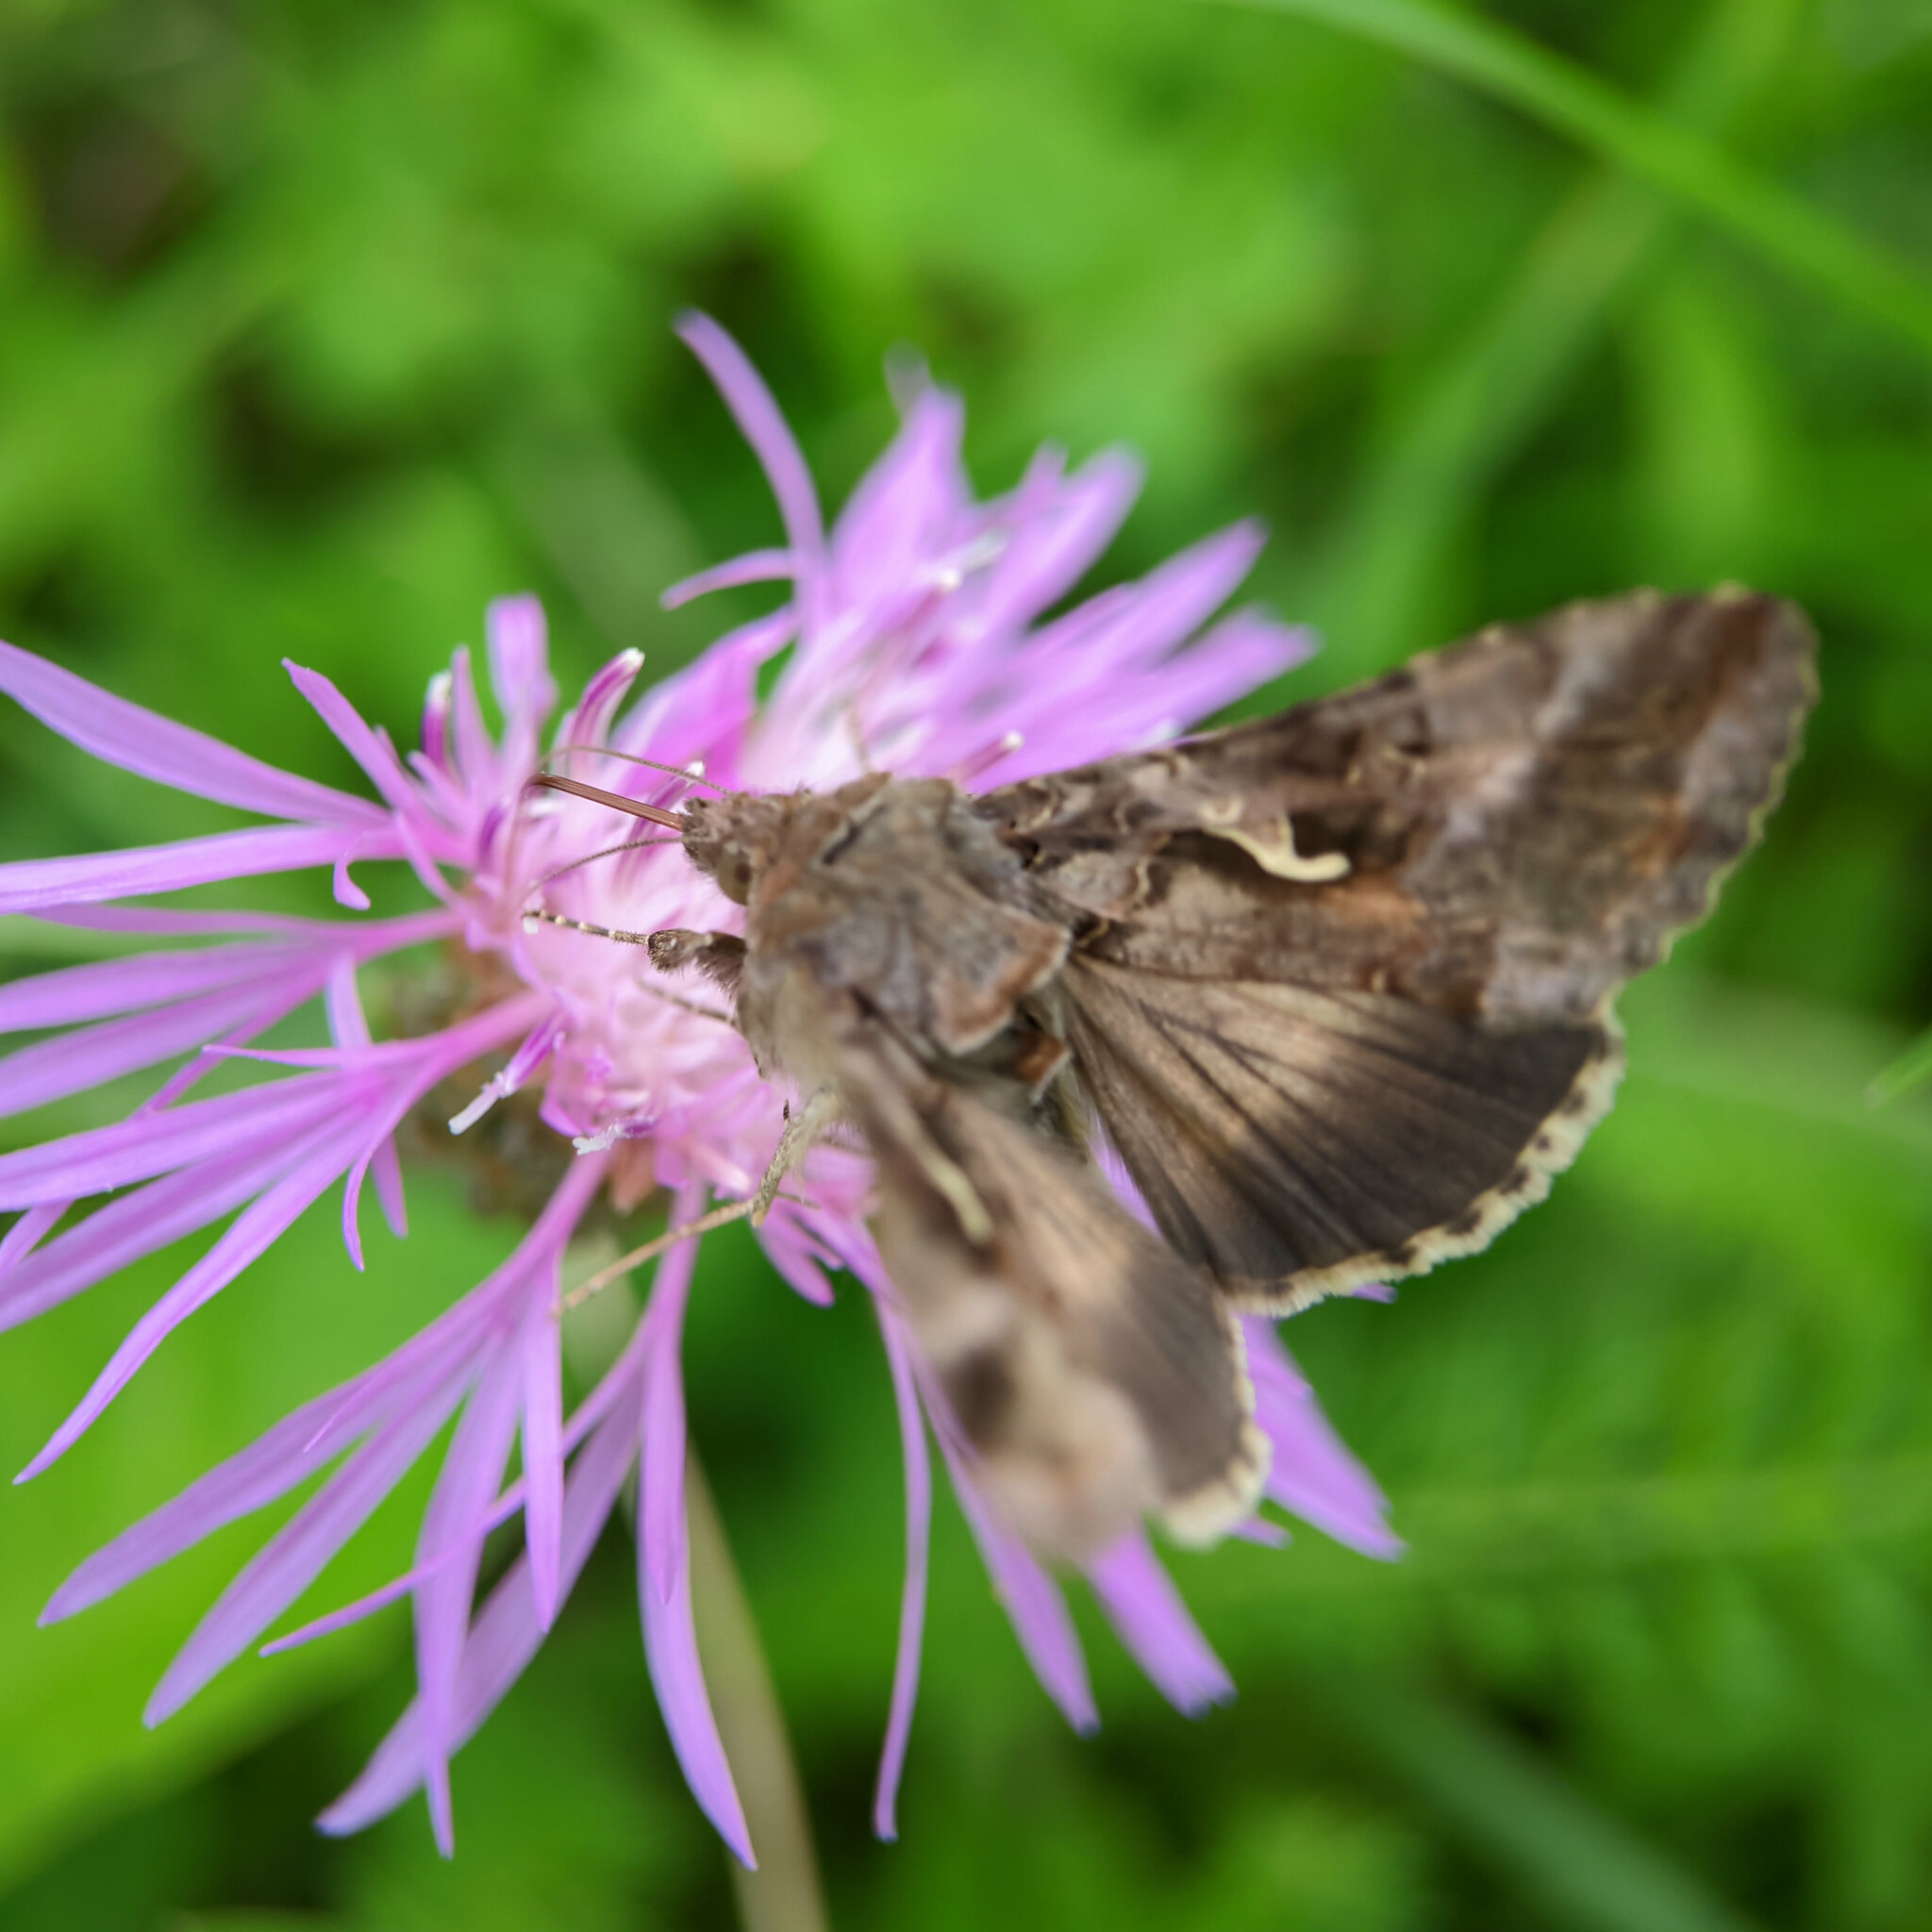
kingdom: Animalia
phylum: Arthropoda
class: Insecta
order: Lepidoptera
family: Noctuidae
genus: Autographa
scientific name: Autographa gamma
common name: Silver y
